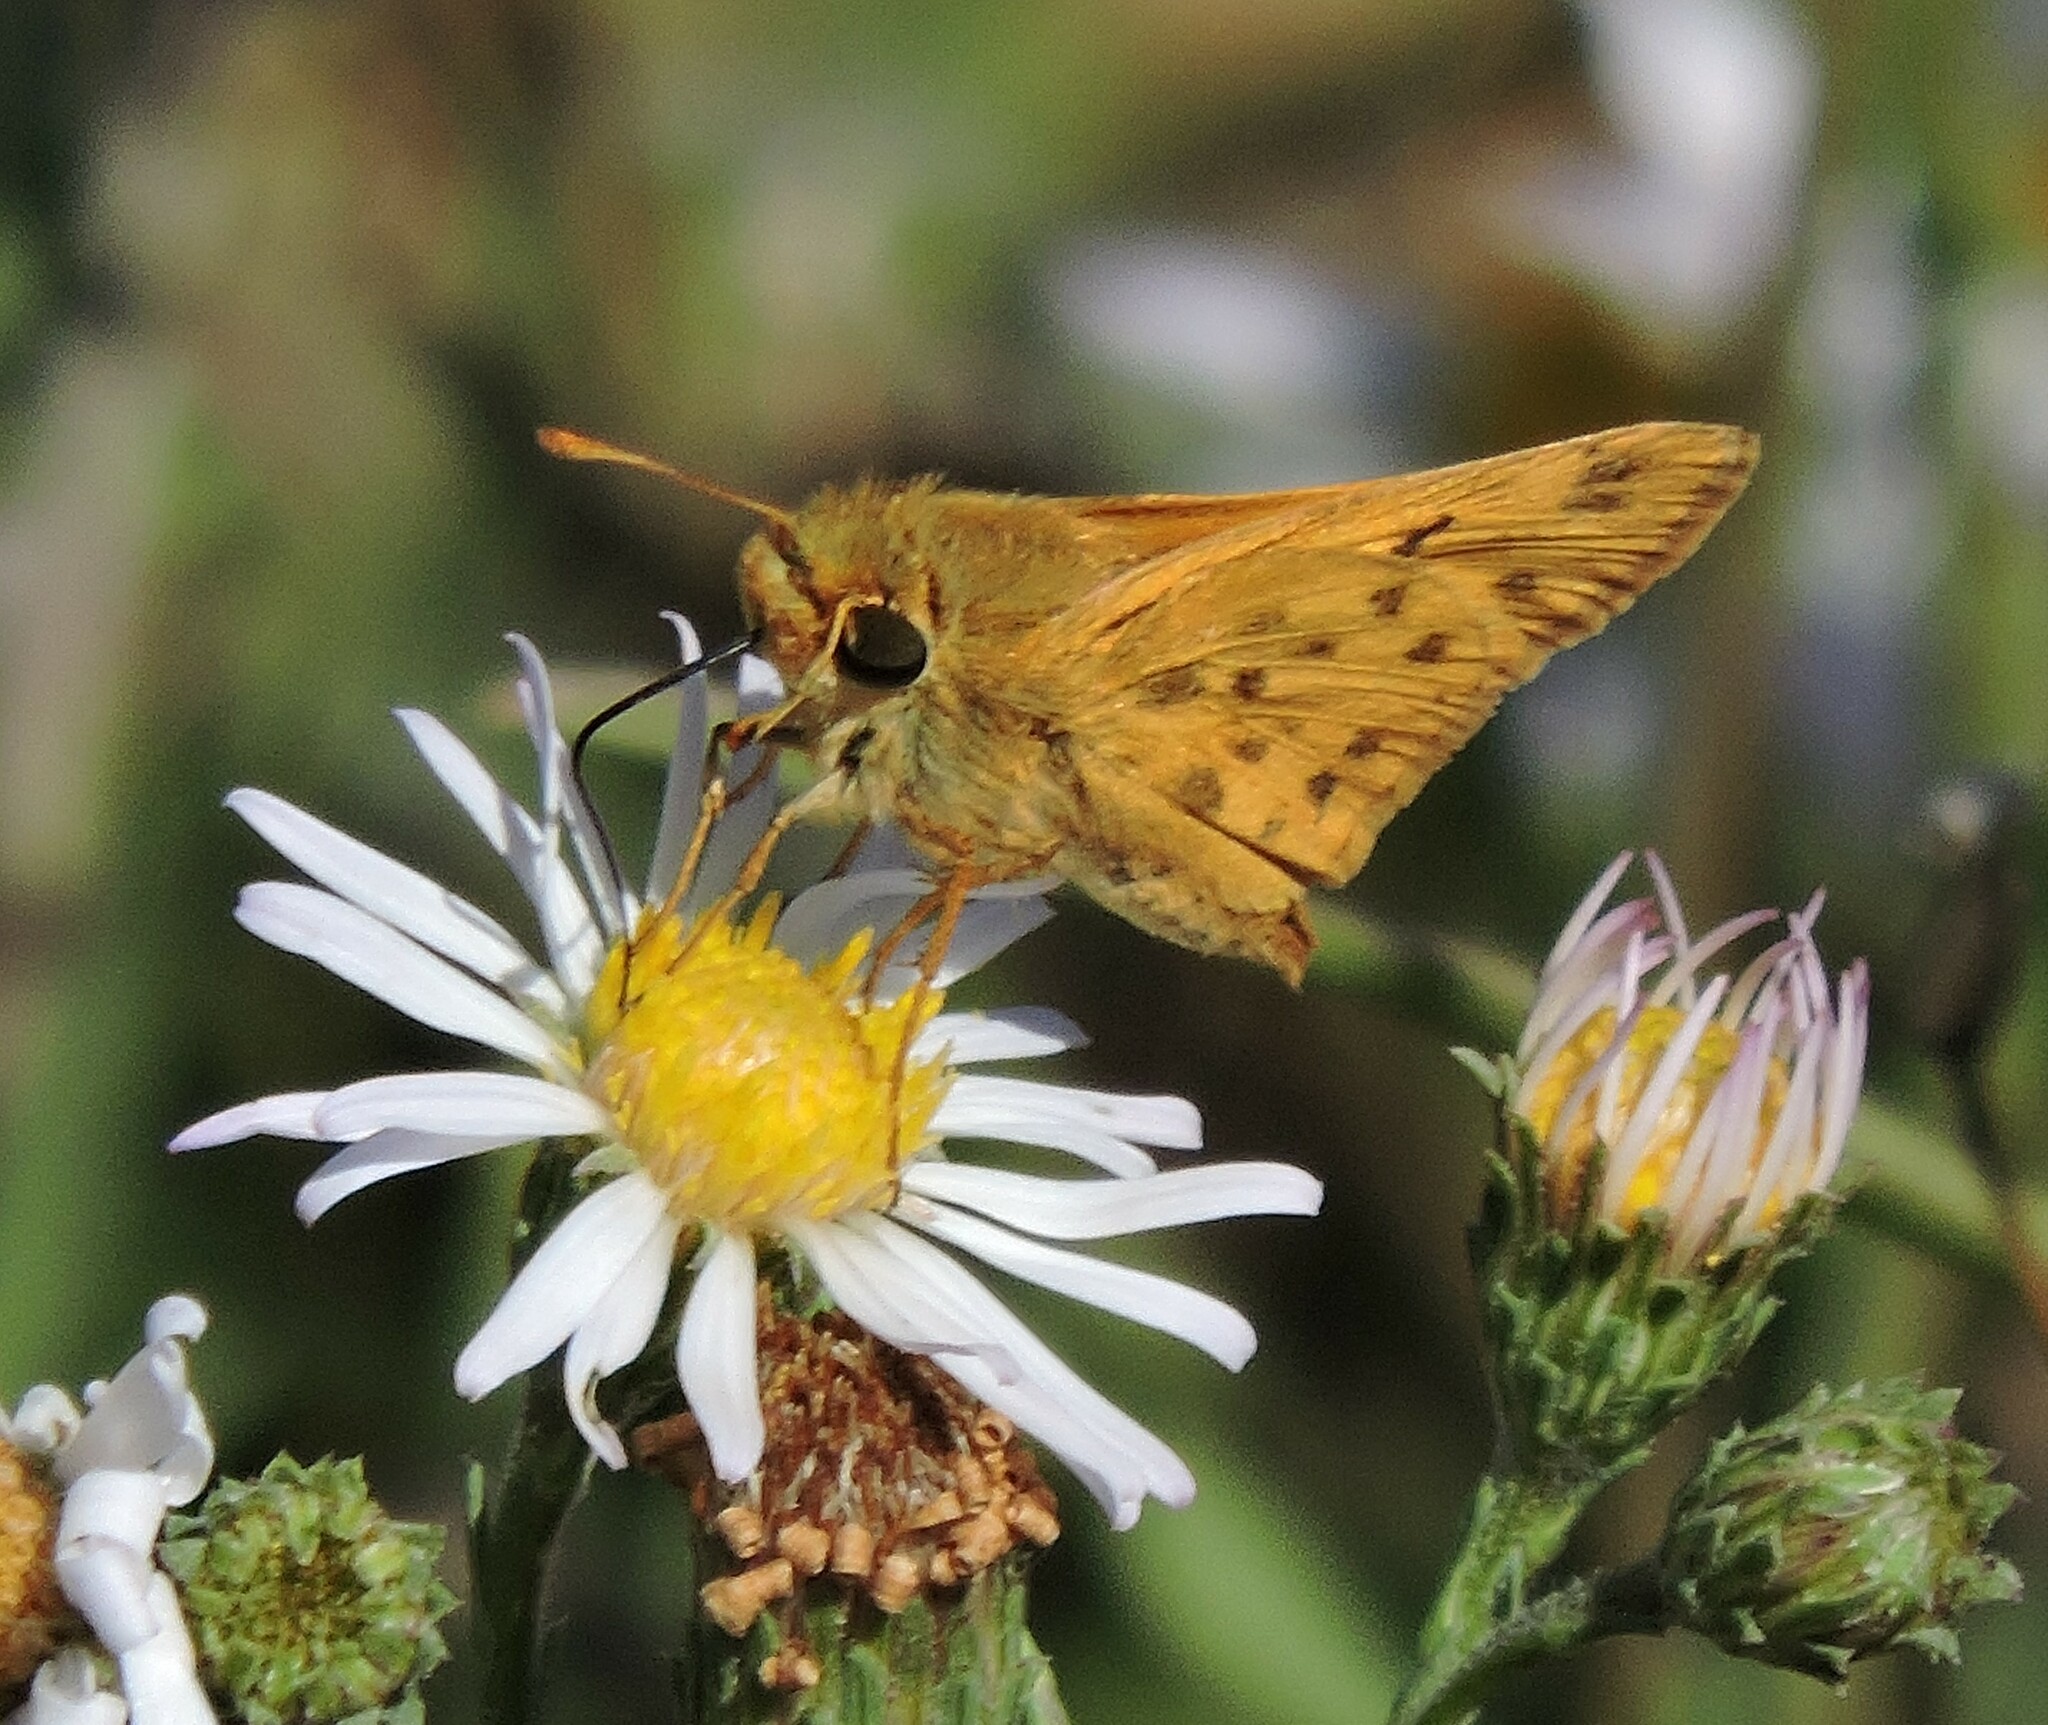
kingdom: Animalia
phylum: Arthropoda
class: Insecta
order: Lepidoptera
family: Hesperiidae
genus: Hylephila
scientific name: Hylephila phyleus
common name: Fiery skipper
